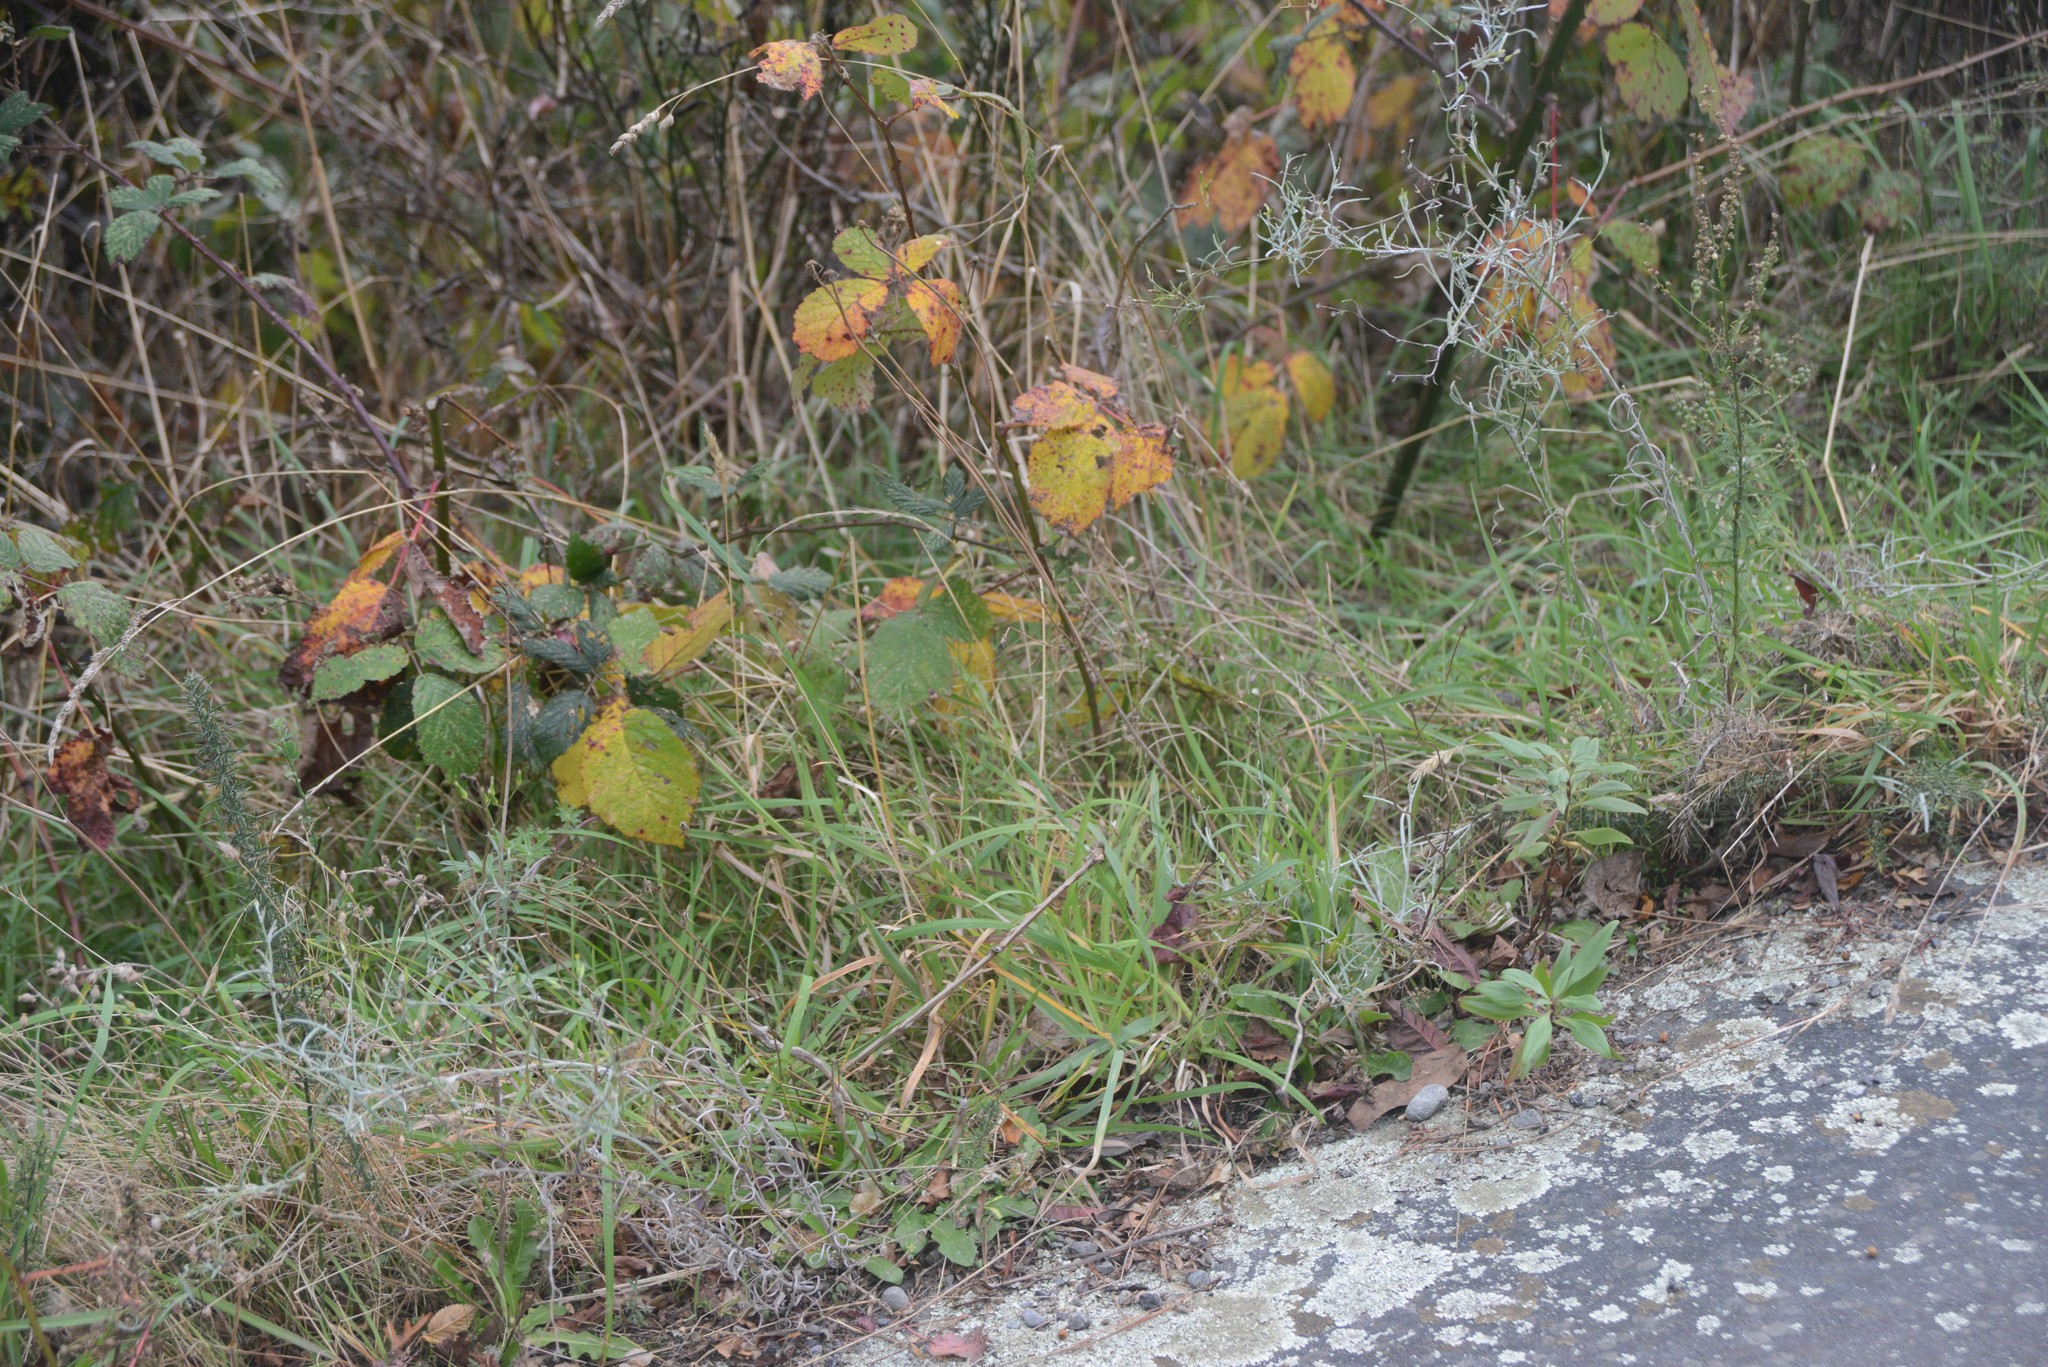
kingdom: Plantae
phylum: Tracheophyta
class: Magnoliopsida
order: Asterales
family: Asteraceae
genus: Senecio
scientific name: Senecio quadridentatus
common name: Cotton fireweed
